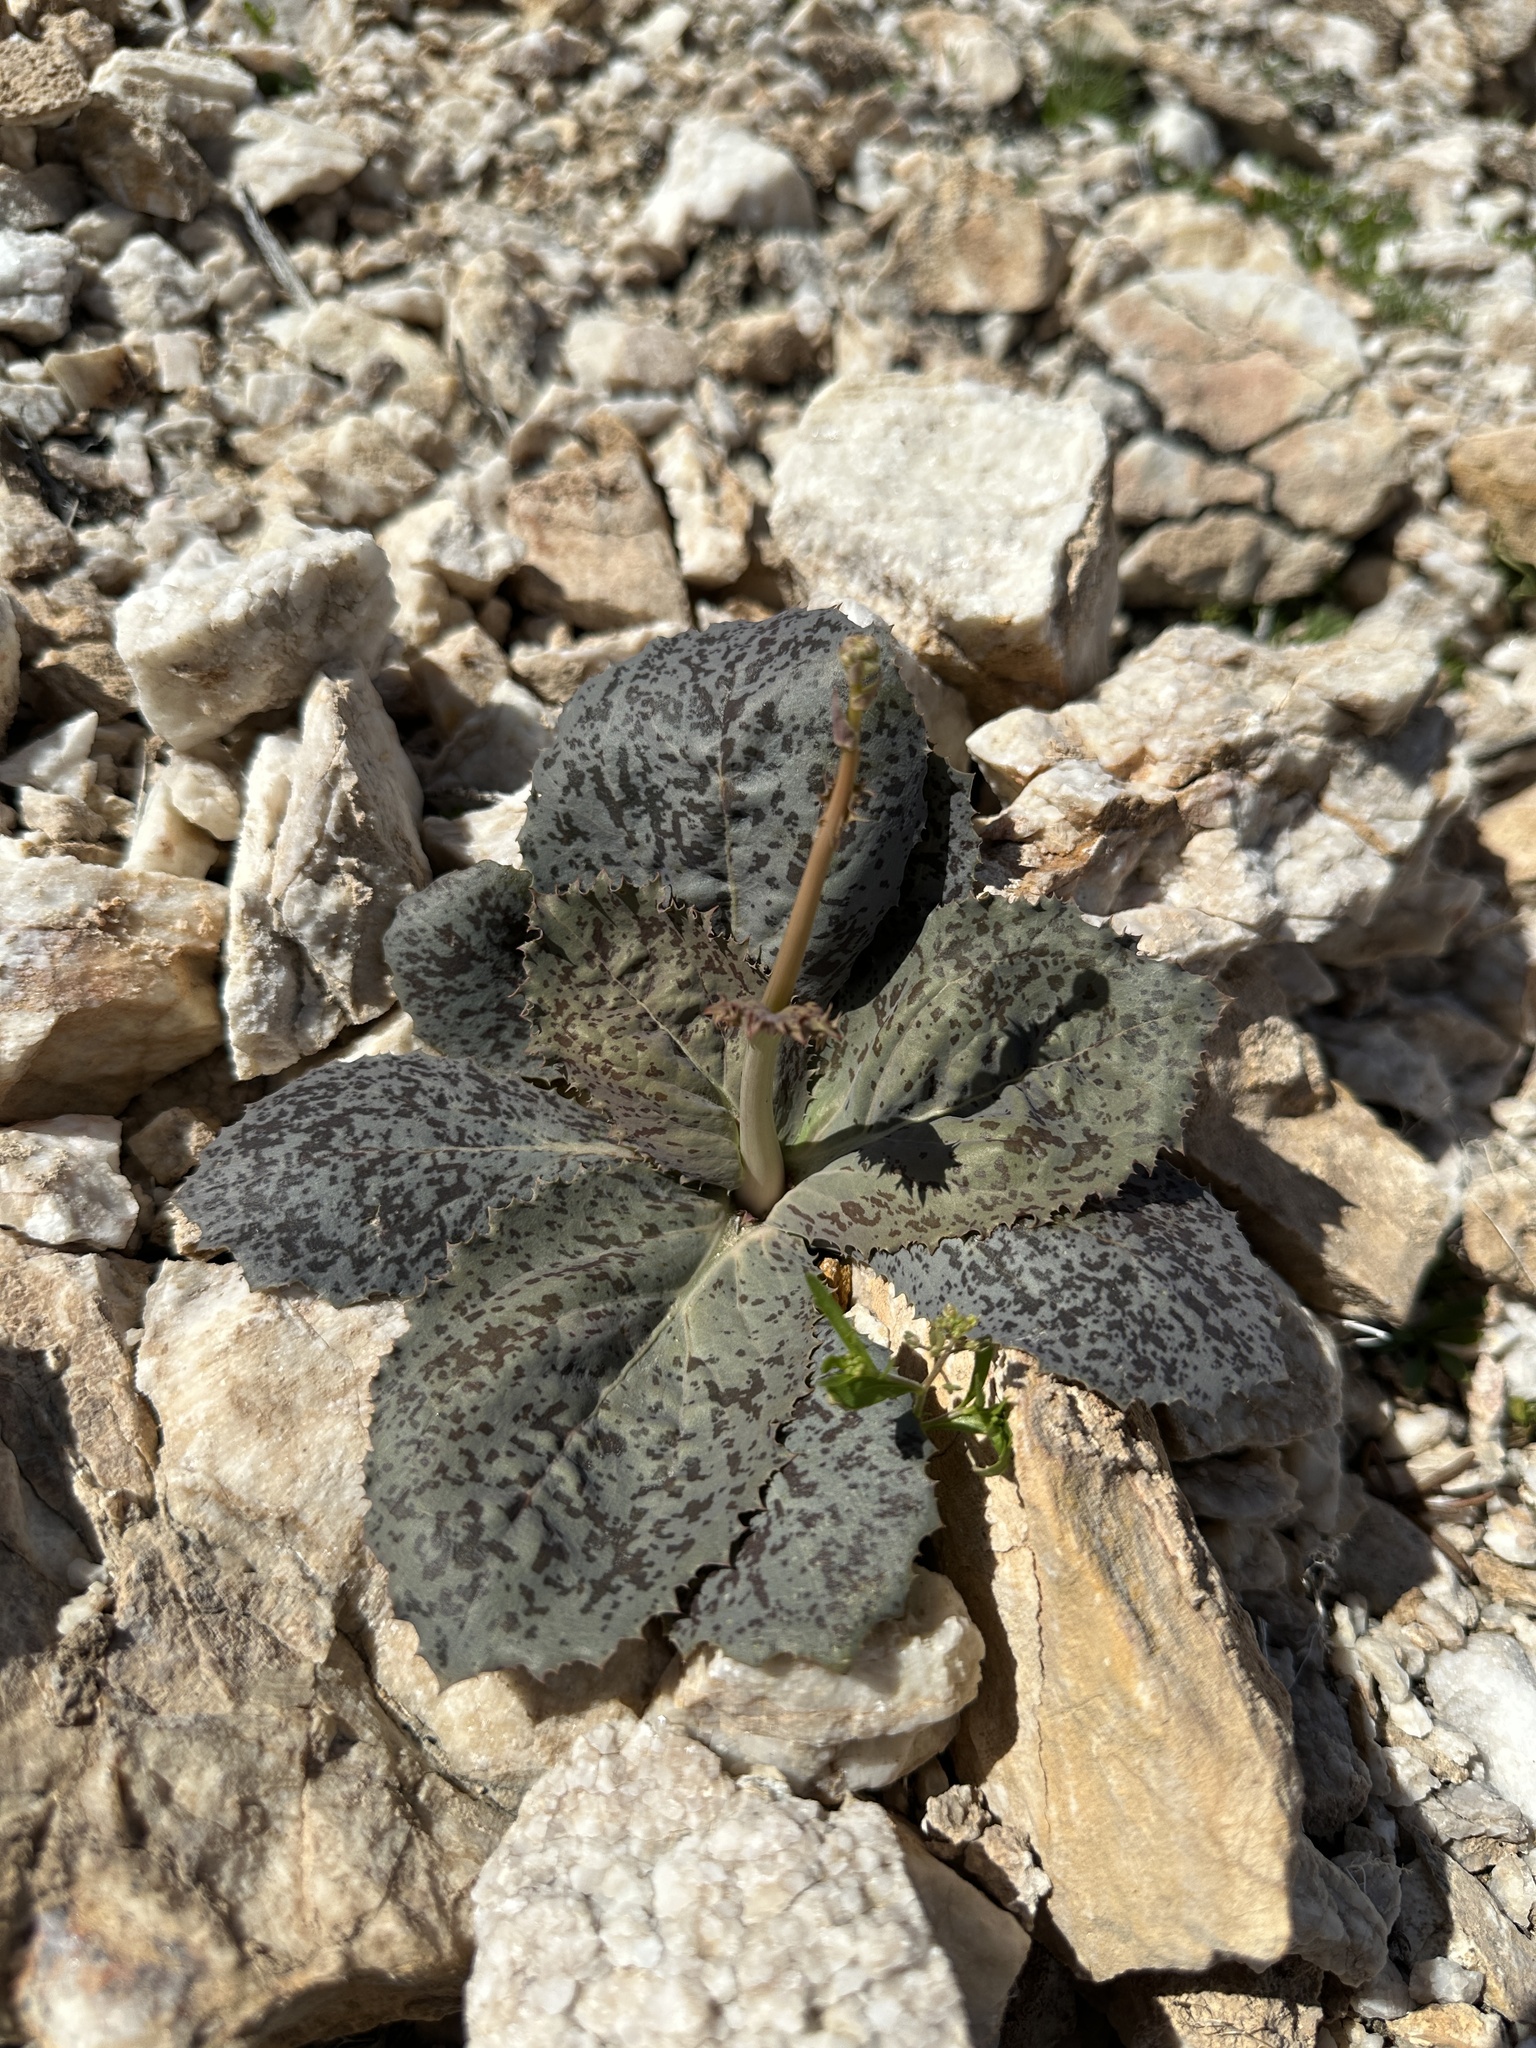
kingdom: Plantae
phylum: Tracheophyta
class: Magnoliopsida
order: Asterales
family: Asteraceae
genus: Atrichoseris
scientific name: Atrichoseris platyphylla
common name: Tobaccoweed
